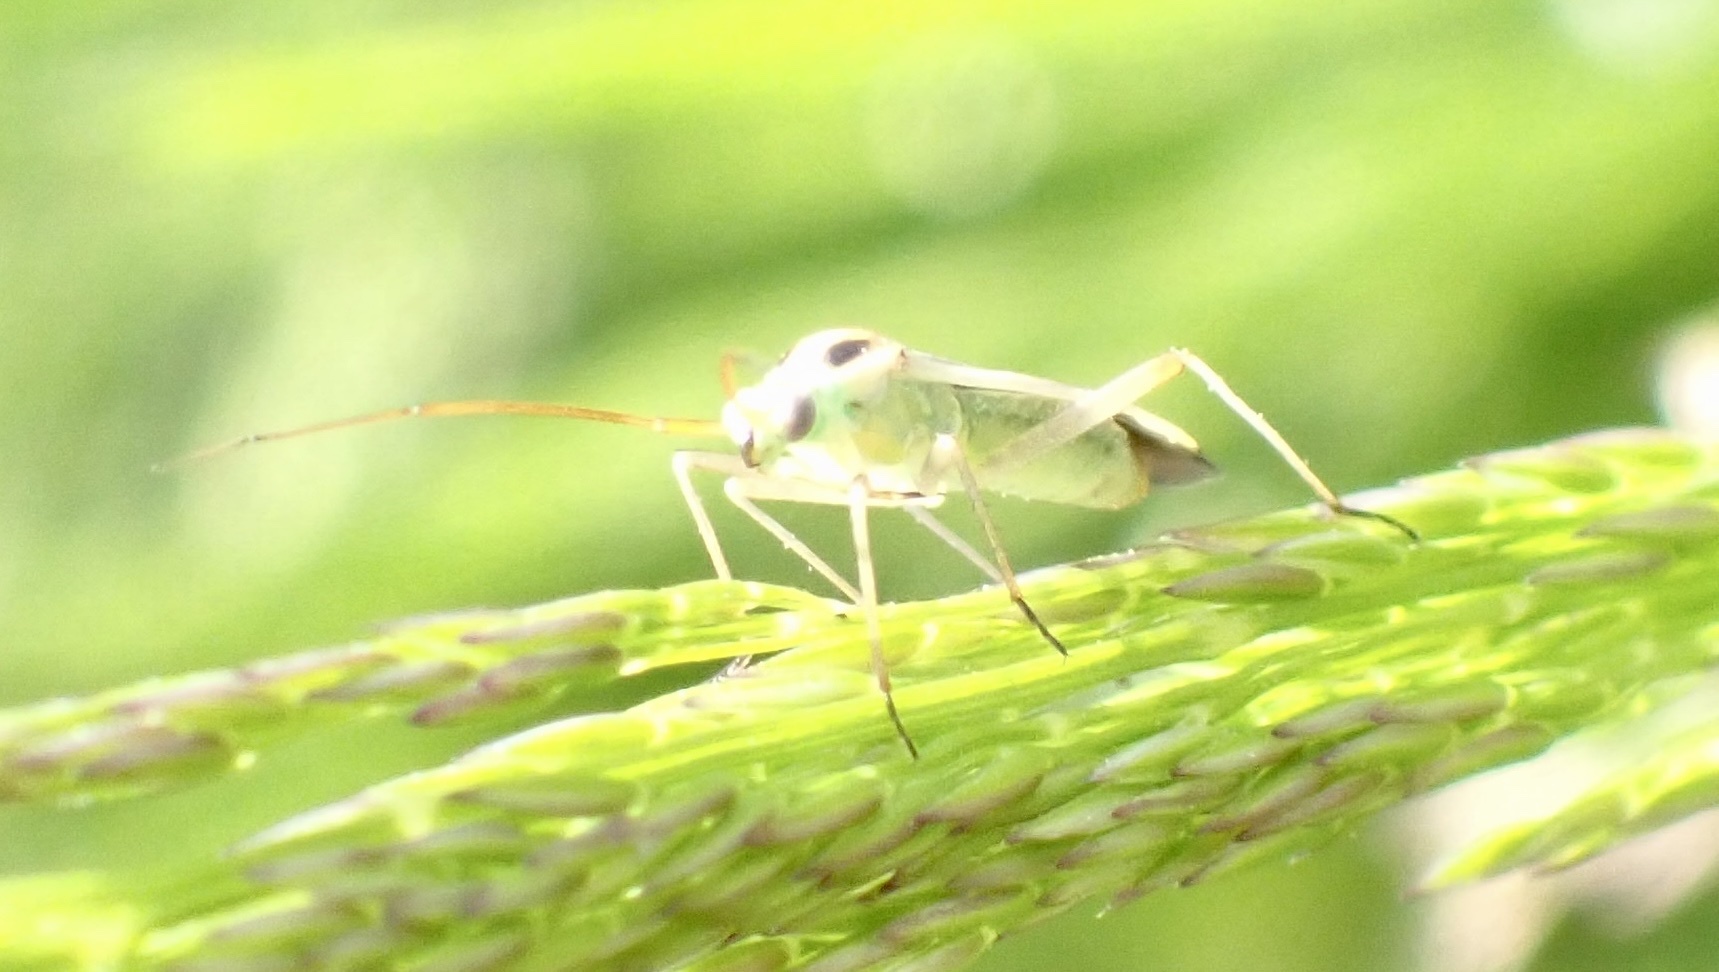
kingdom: Animalia
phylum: Arthropoda
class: Insecta
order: Hemiptera
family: Miridae
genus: Stenotus
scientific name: Stenotus binotatus
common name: Plant bug
